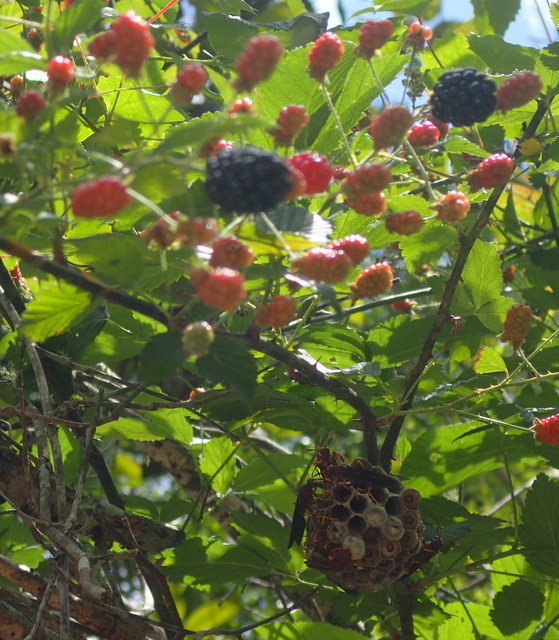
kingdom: Plantae
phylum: Tracheophyta
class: Magnoliopsida
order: Rosales
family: Rosaceae
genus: Rubus
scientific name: Rubus pensilvanicus
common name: Pennsylvania blackberry
